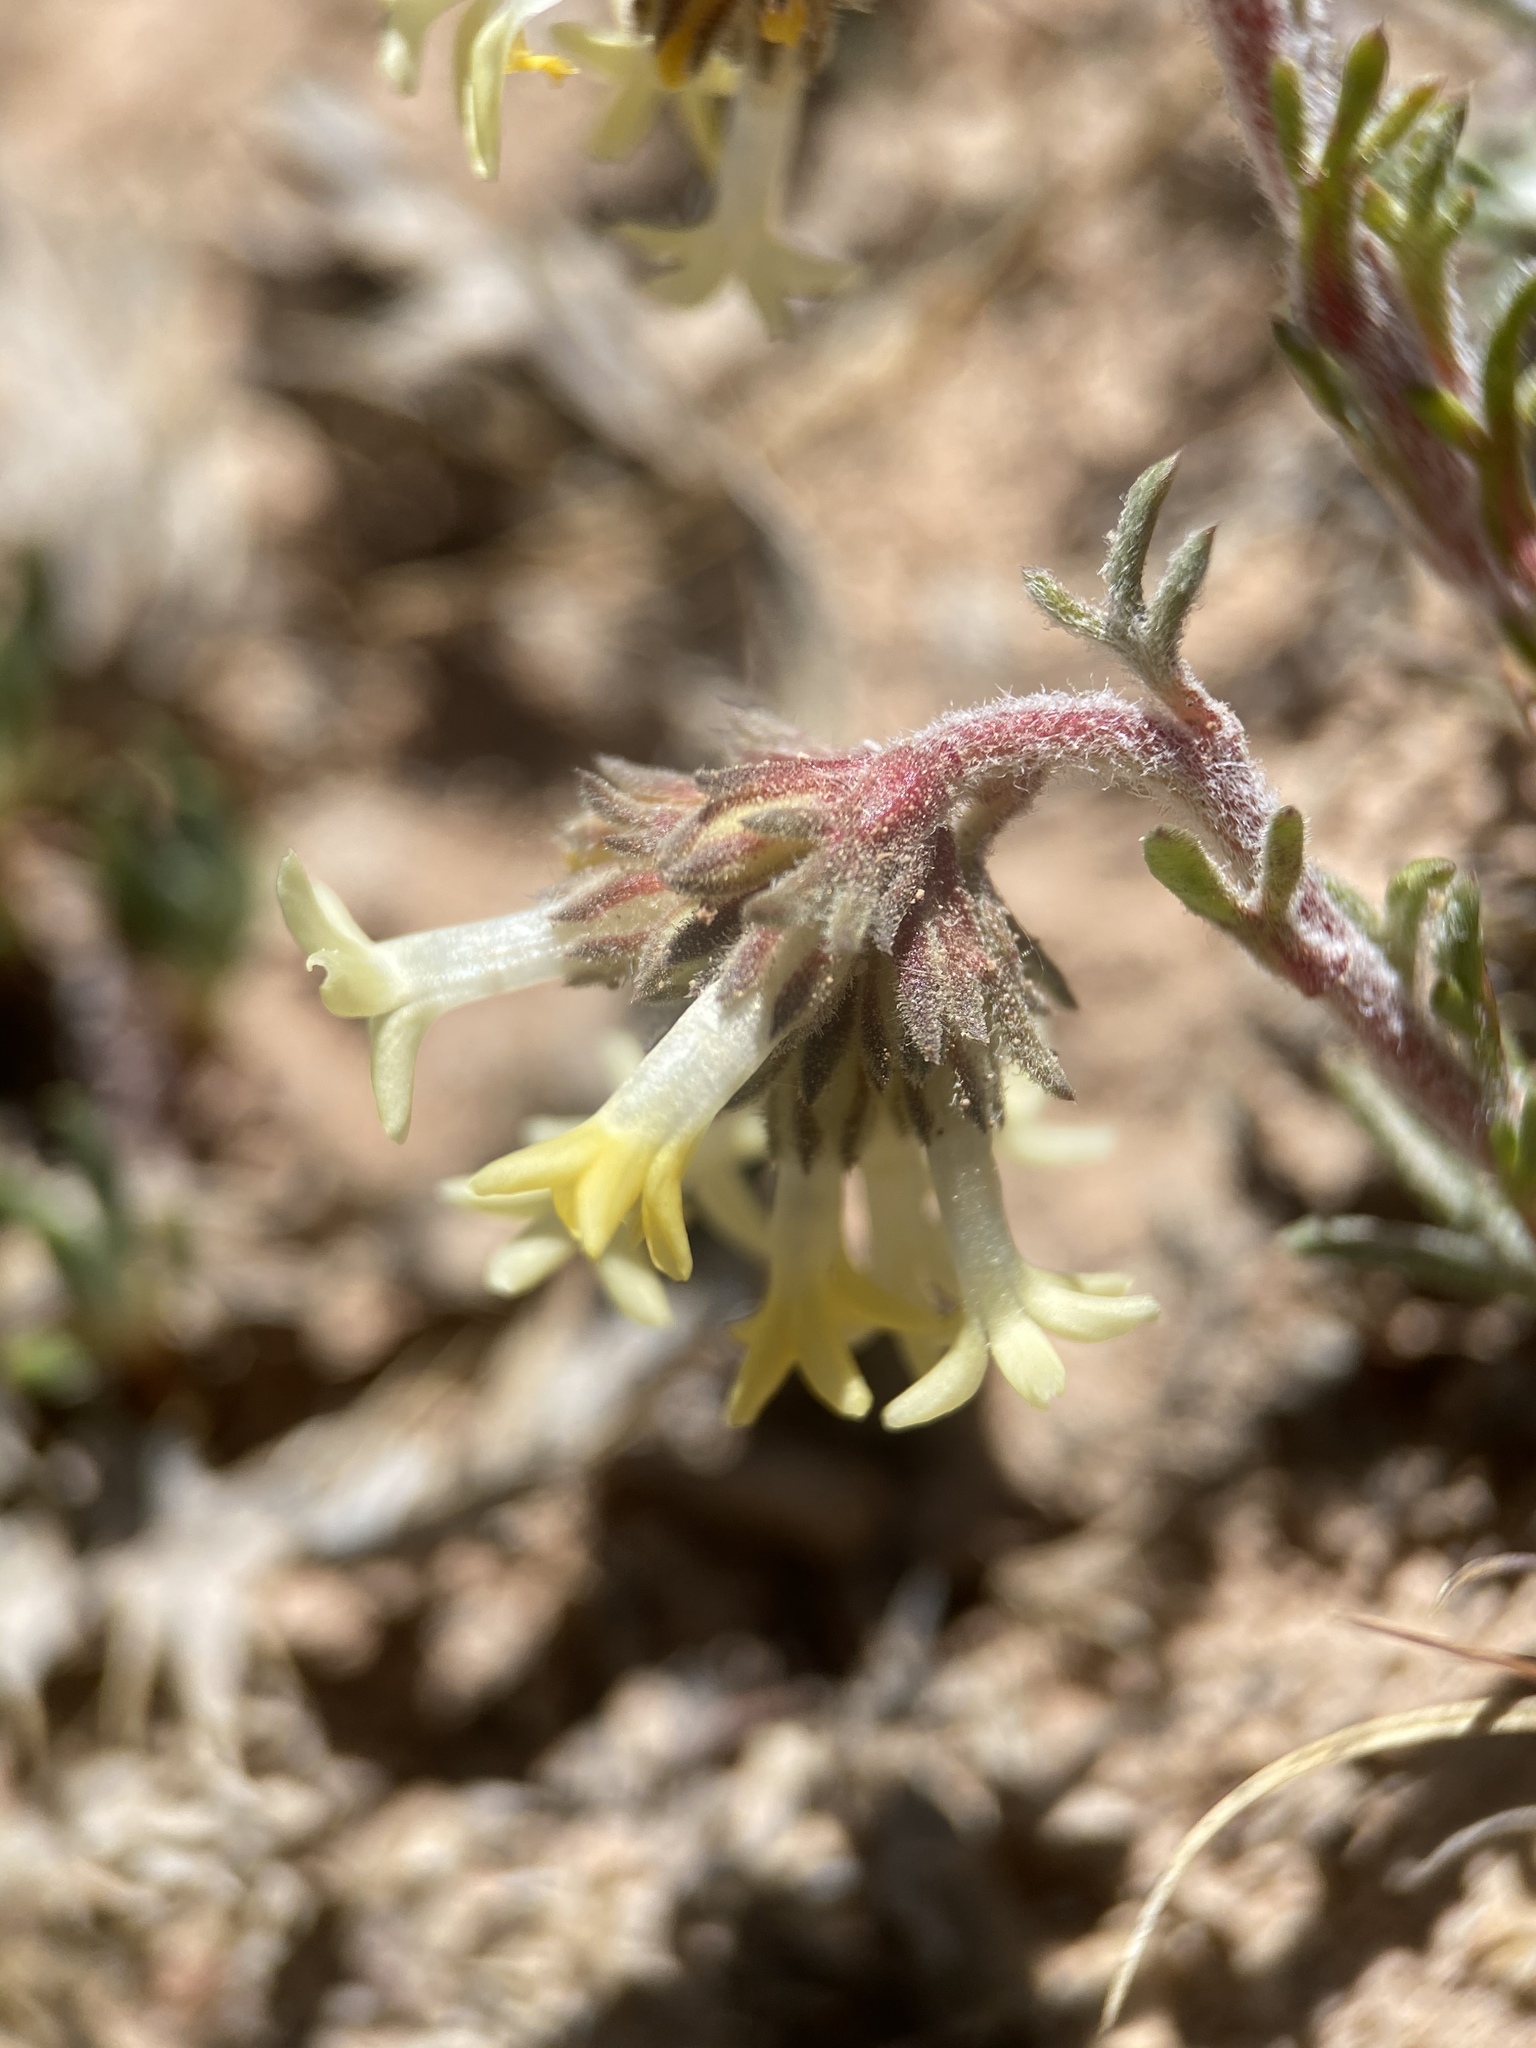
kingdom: Plantae
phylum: Tracheophyta
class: Magnoliopsida
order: Ericales
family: Polemoniaceae
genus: Ipomopsis
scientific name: Ipomopsis spicata
